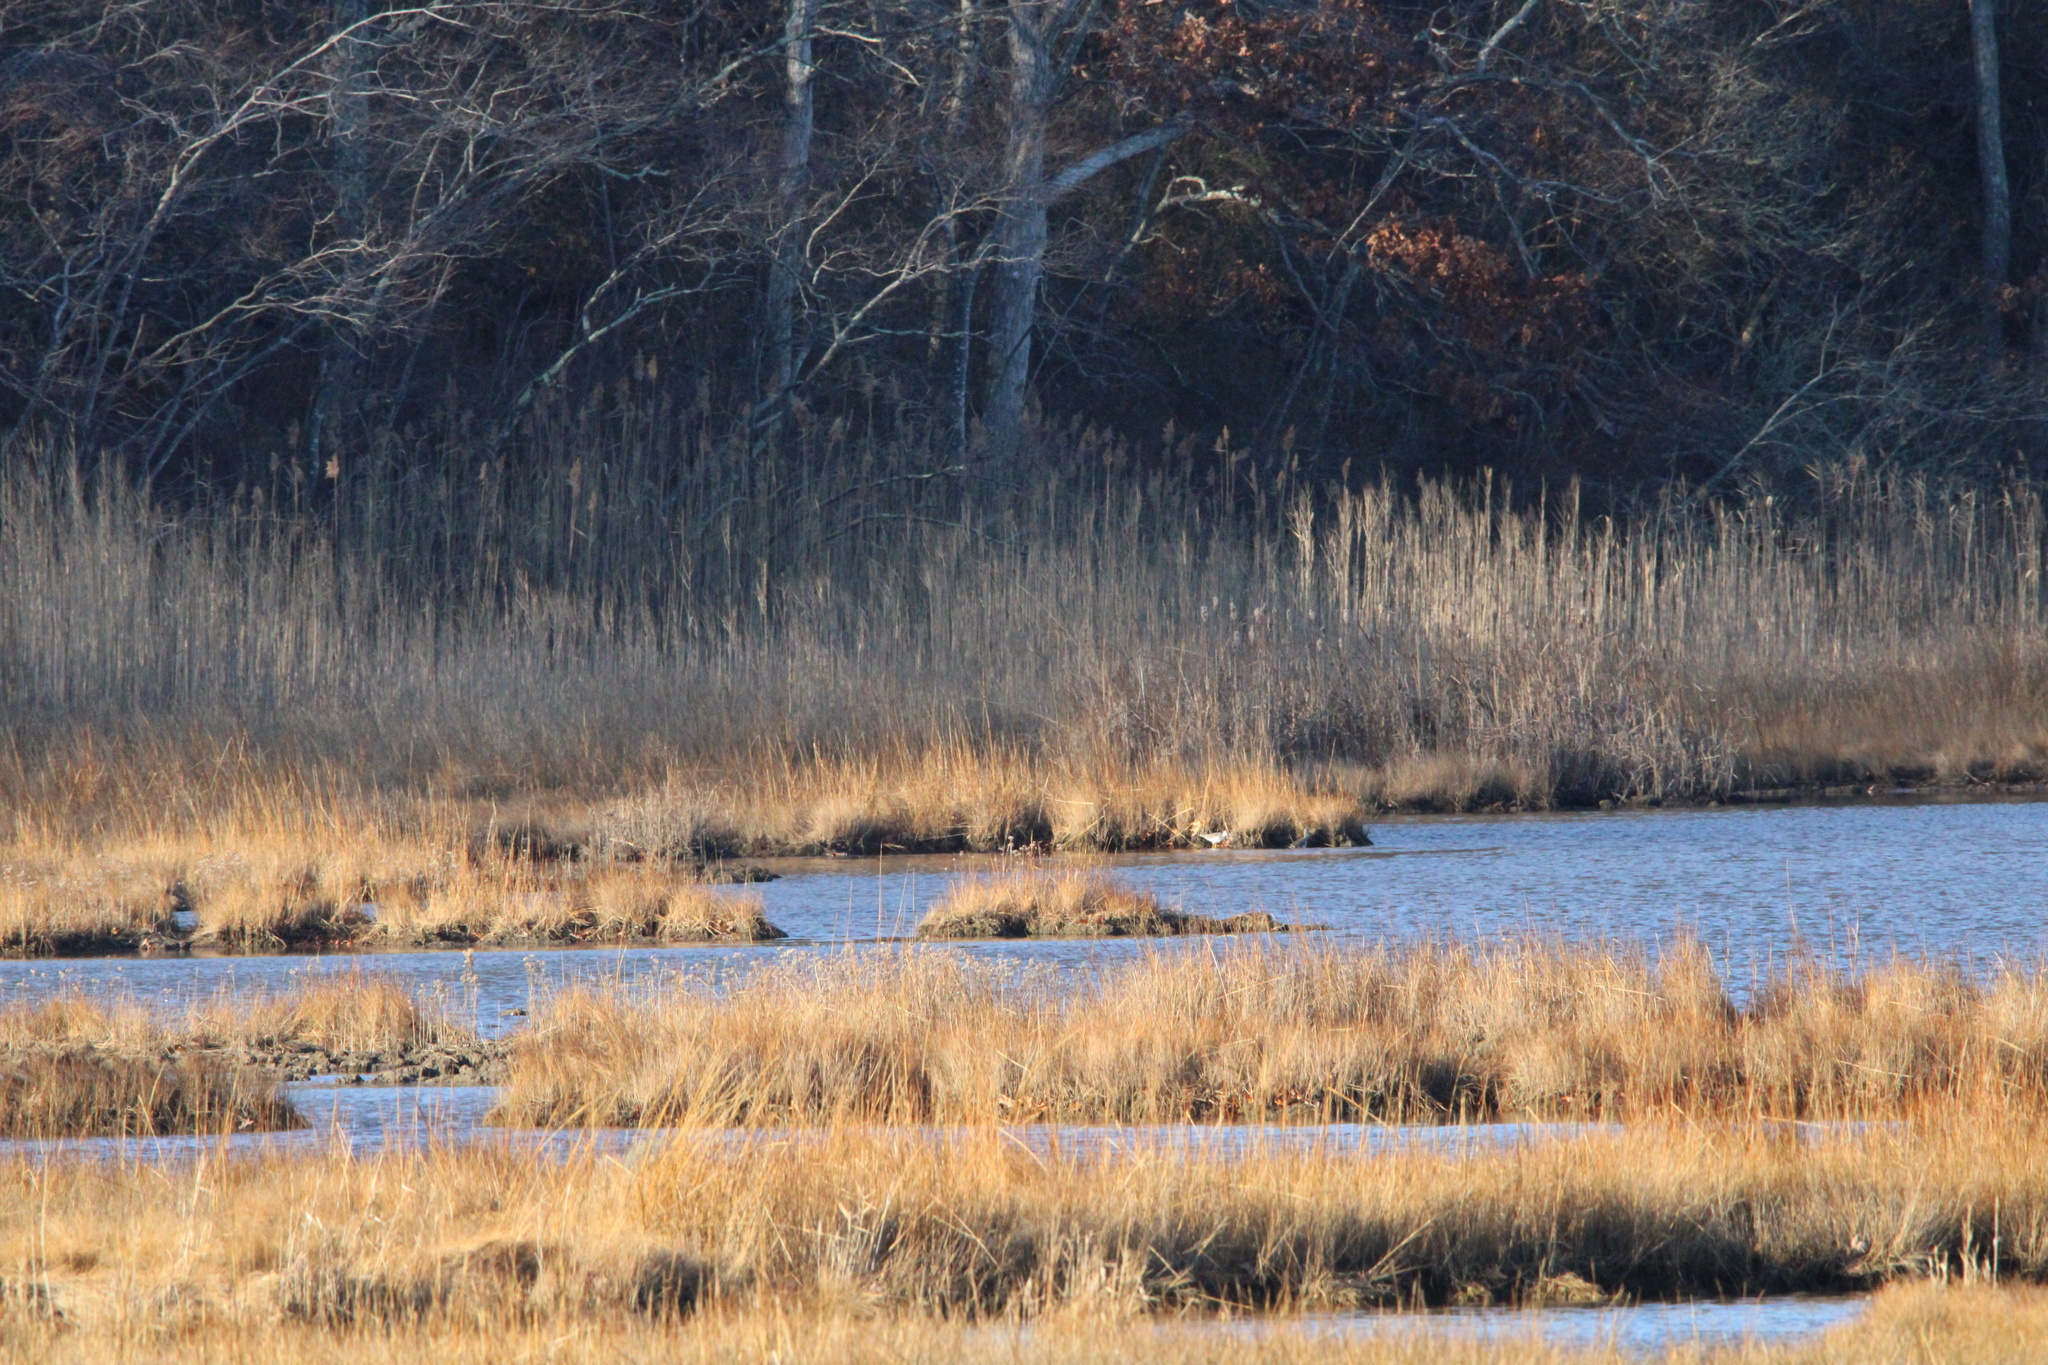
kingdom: Animalia
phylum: Chordata
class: Aves
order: Charadriiformes
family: Scolopacidae
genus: Tringa
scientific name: Tringa melanoleuca
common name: Greater yellowlegs
